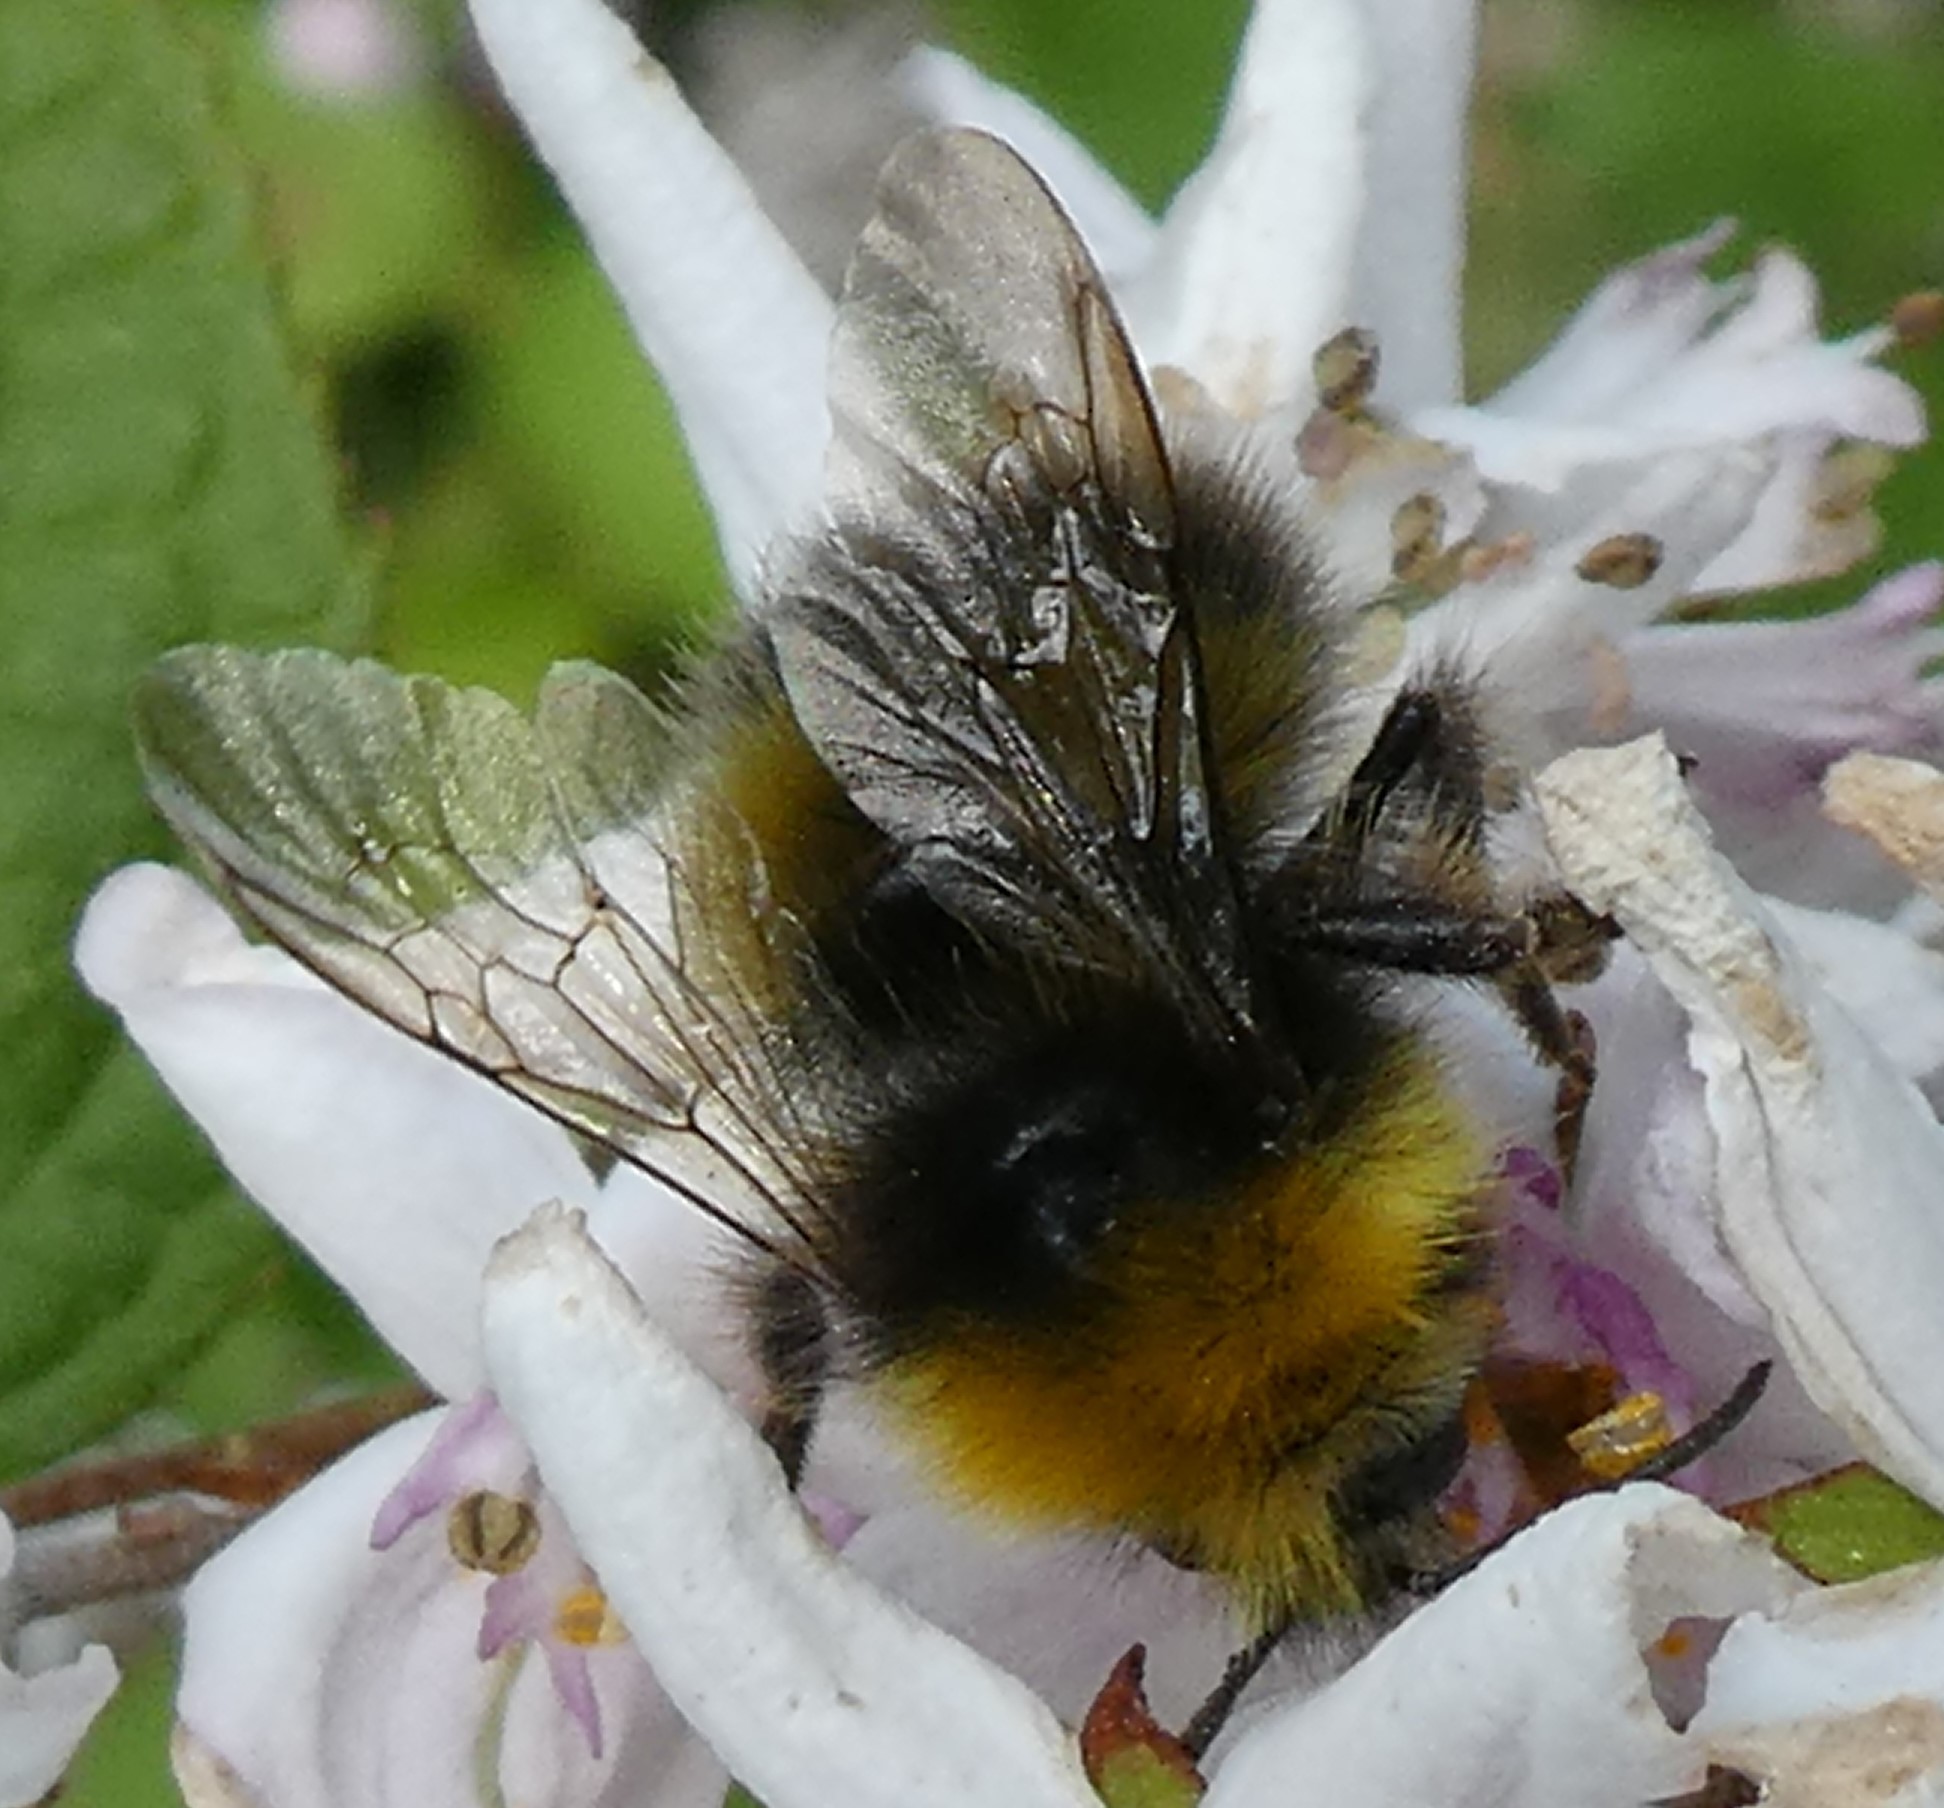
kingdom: Animalia
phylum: Arthropoda
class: Insecta
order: Hymenoptera
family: Apidae
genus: Bombus
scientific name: Bombus pratorum
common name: Early humble-bee
